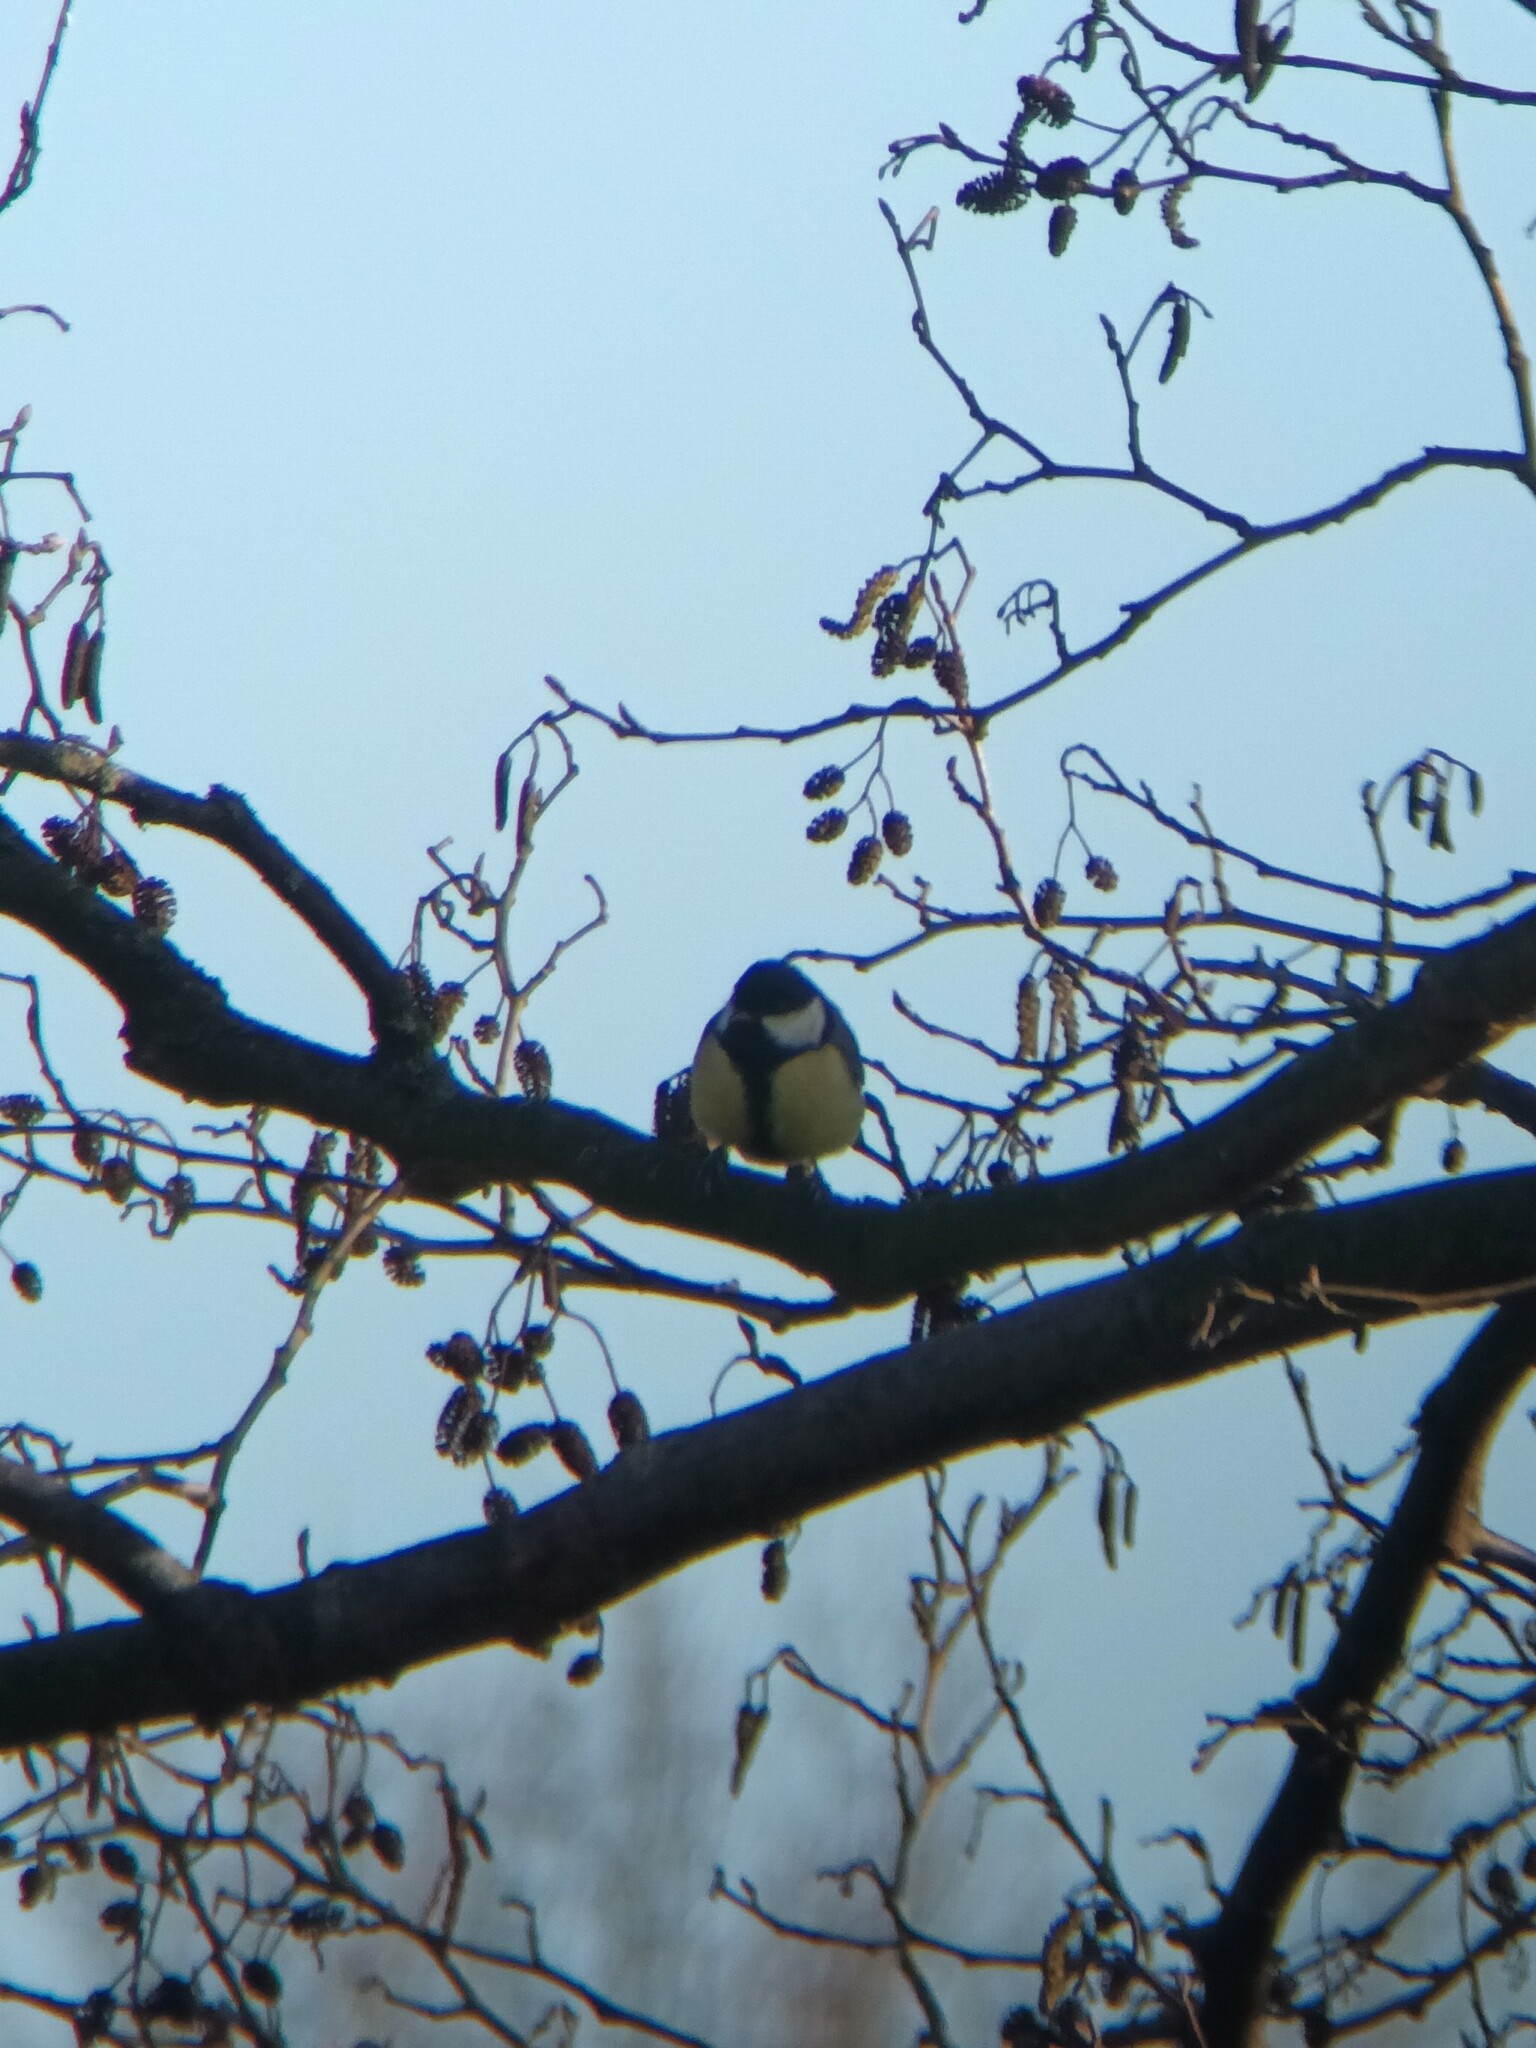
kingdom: Animalia
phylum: Chordata
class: Aves
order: Passeriformes
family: Paridae
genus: Parus
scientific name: Parus major
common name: Great tit
